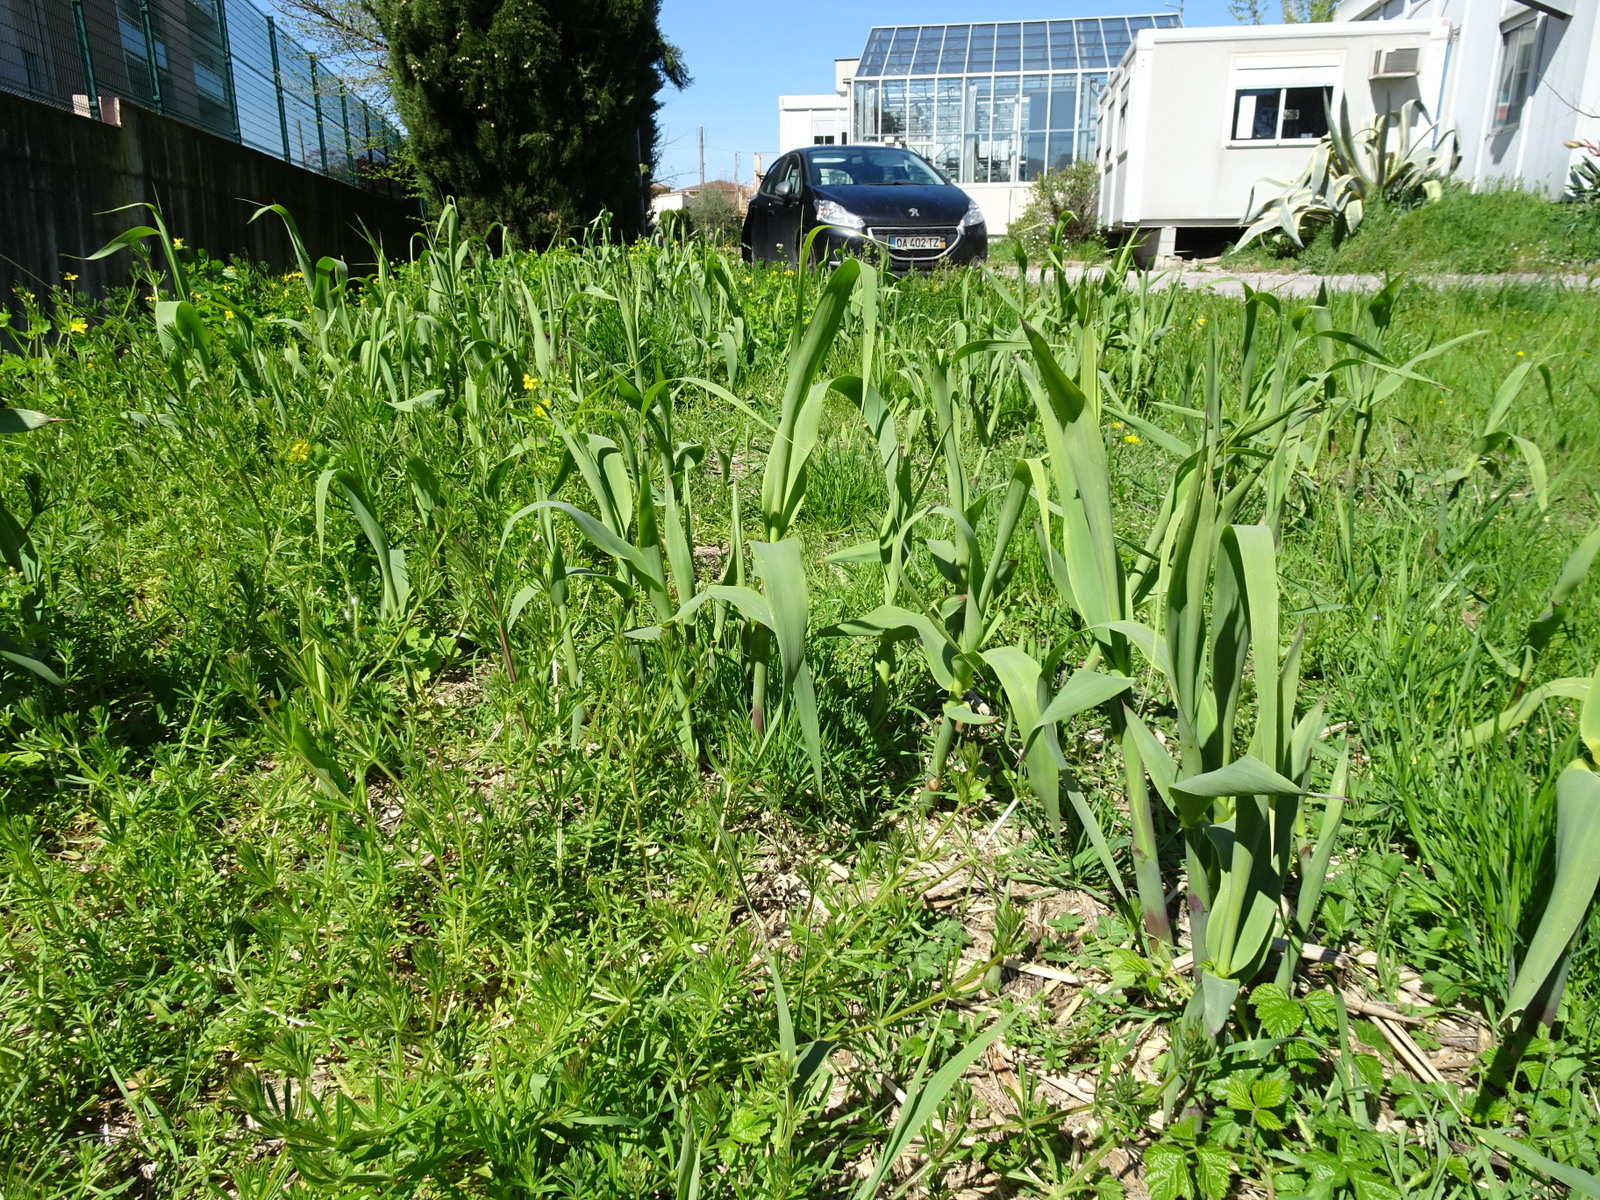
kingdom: Plantae
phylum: Tracheophyta
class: Liliopsida
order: Poales
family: Poaceae
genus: Arundo
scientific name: Arundo donax
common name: Giant reed
